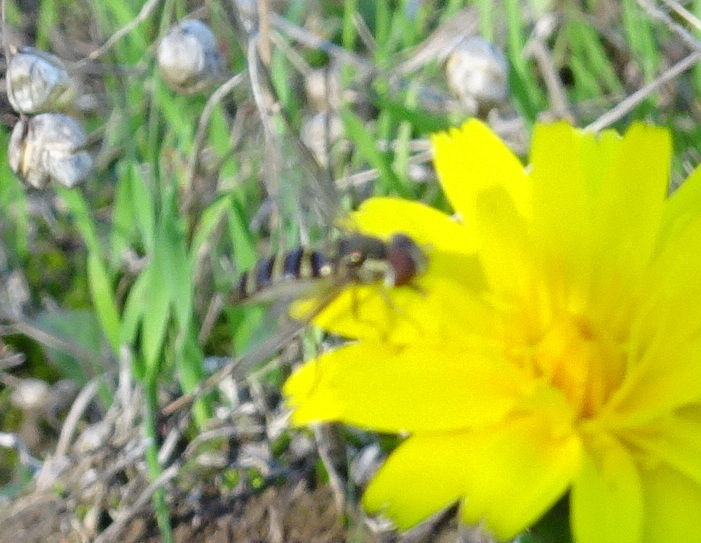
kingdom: Animalia
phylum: Arthropoda
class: Insecta
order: Diptera
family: Syrphidae
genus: Fazia
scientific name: Fazia micrura
